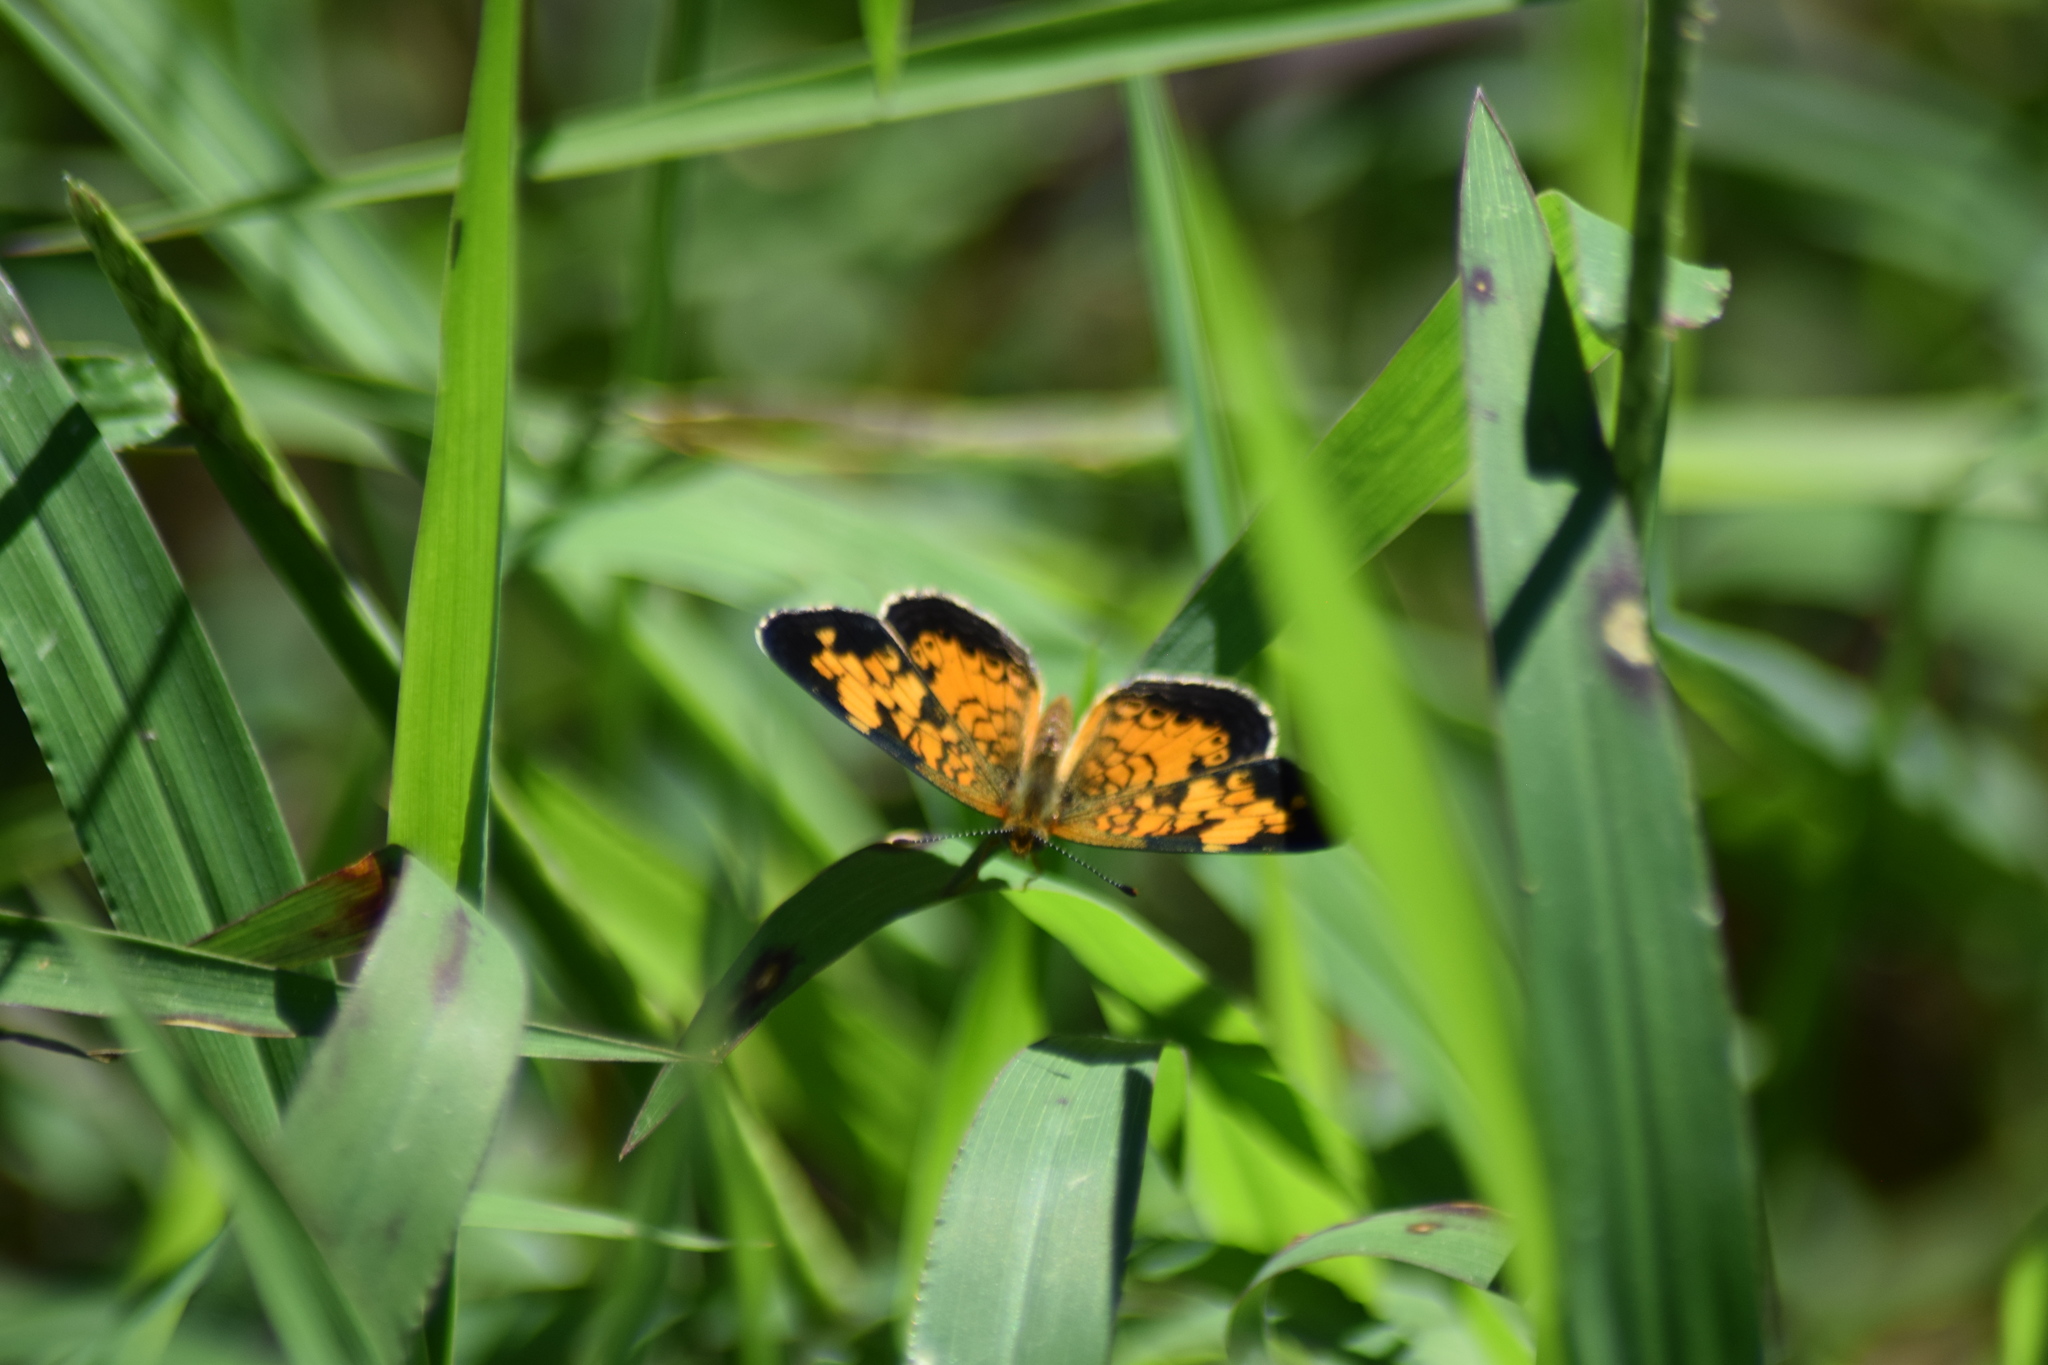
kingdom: Animalia
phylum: Arthropoda
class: Insecta
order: Lepidoptera
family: Nymphalidae
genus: Phyciodes
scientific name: Phyciodes tharos
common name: Pearl crescent
